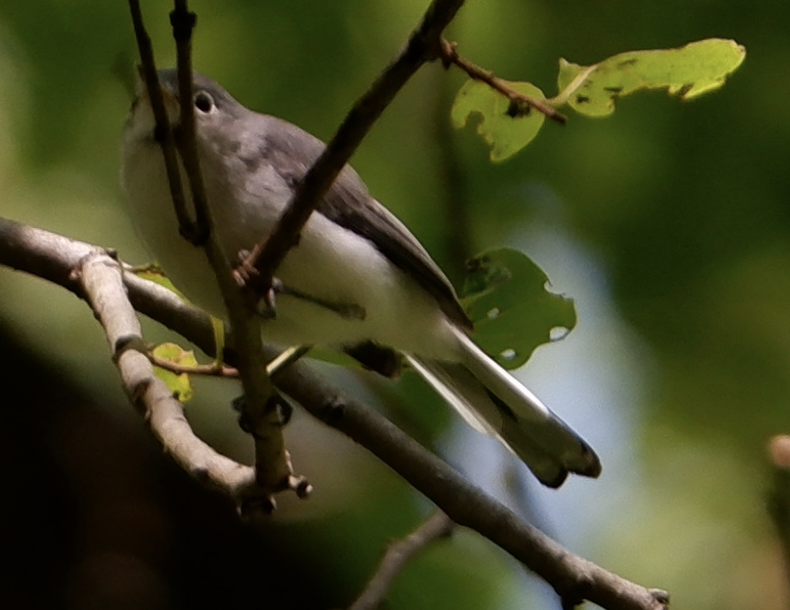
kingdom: Animalia
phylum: Chordata
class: Aves
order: Passeriformes
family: Polioptilidae
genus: Polioptila
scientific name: Polioptila caerulea
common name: Blue-gray gnatcatcher
